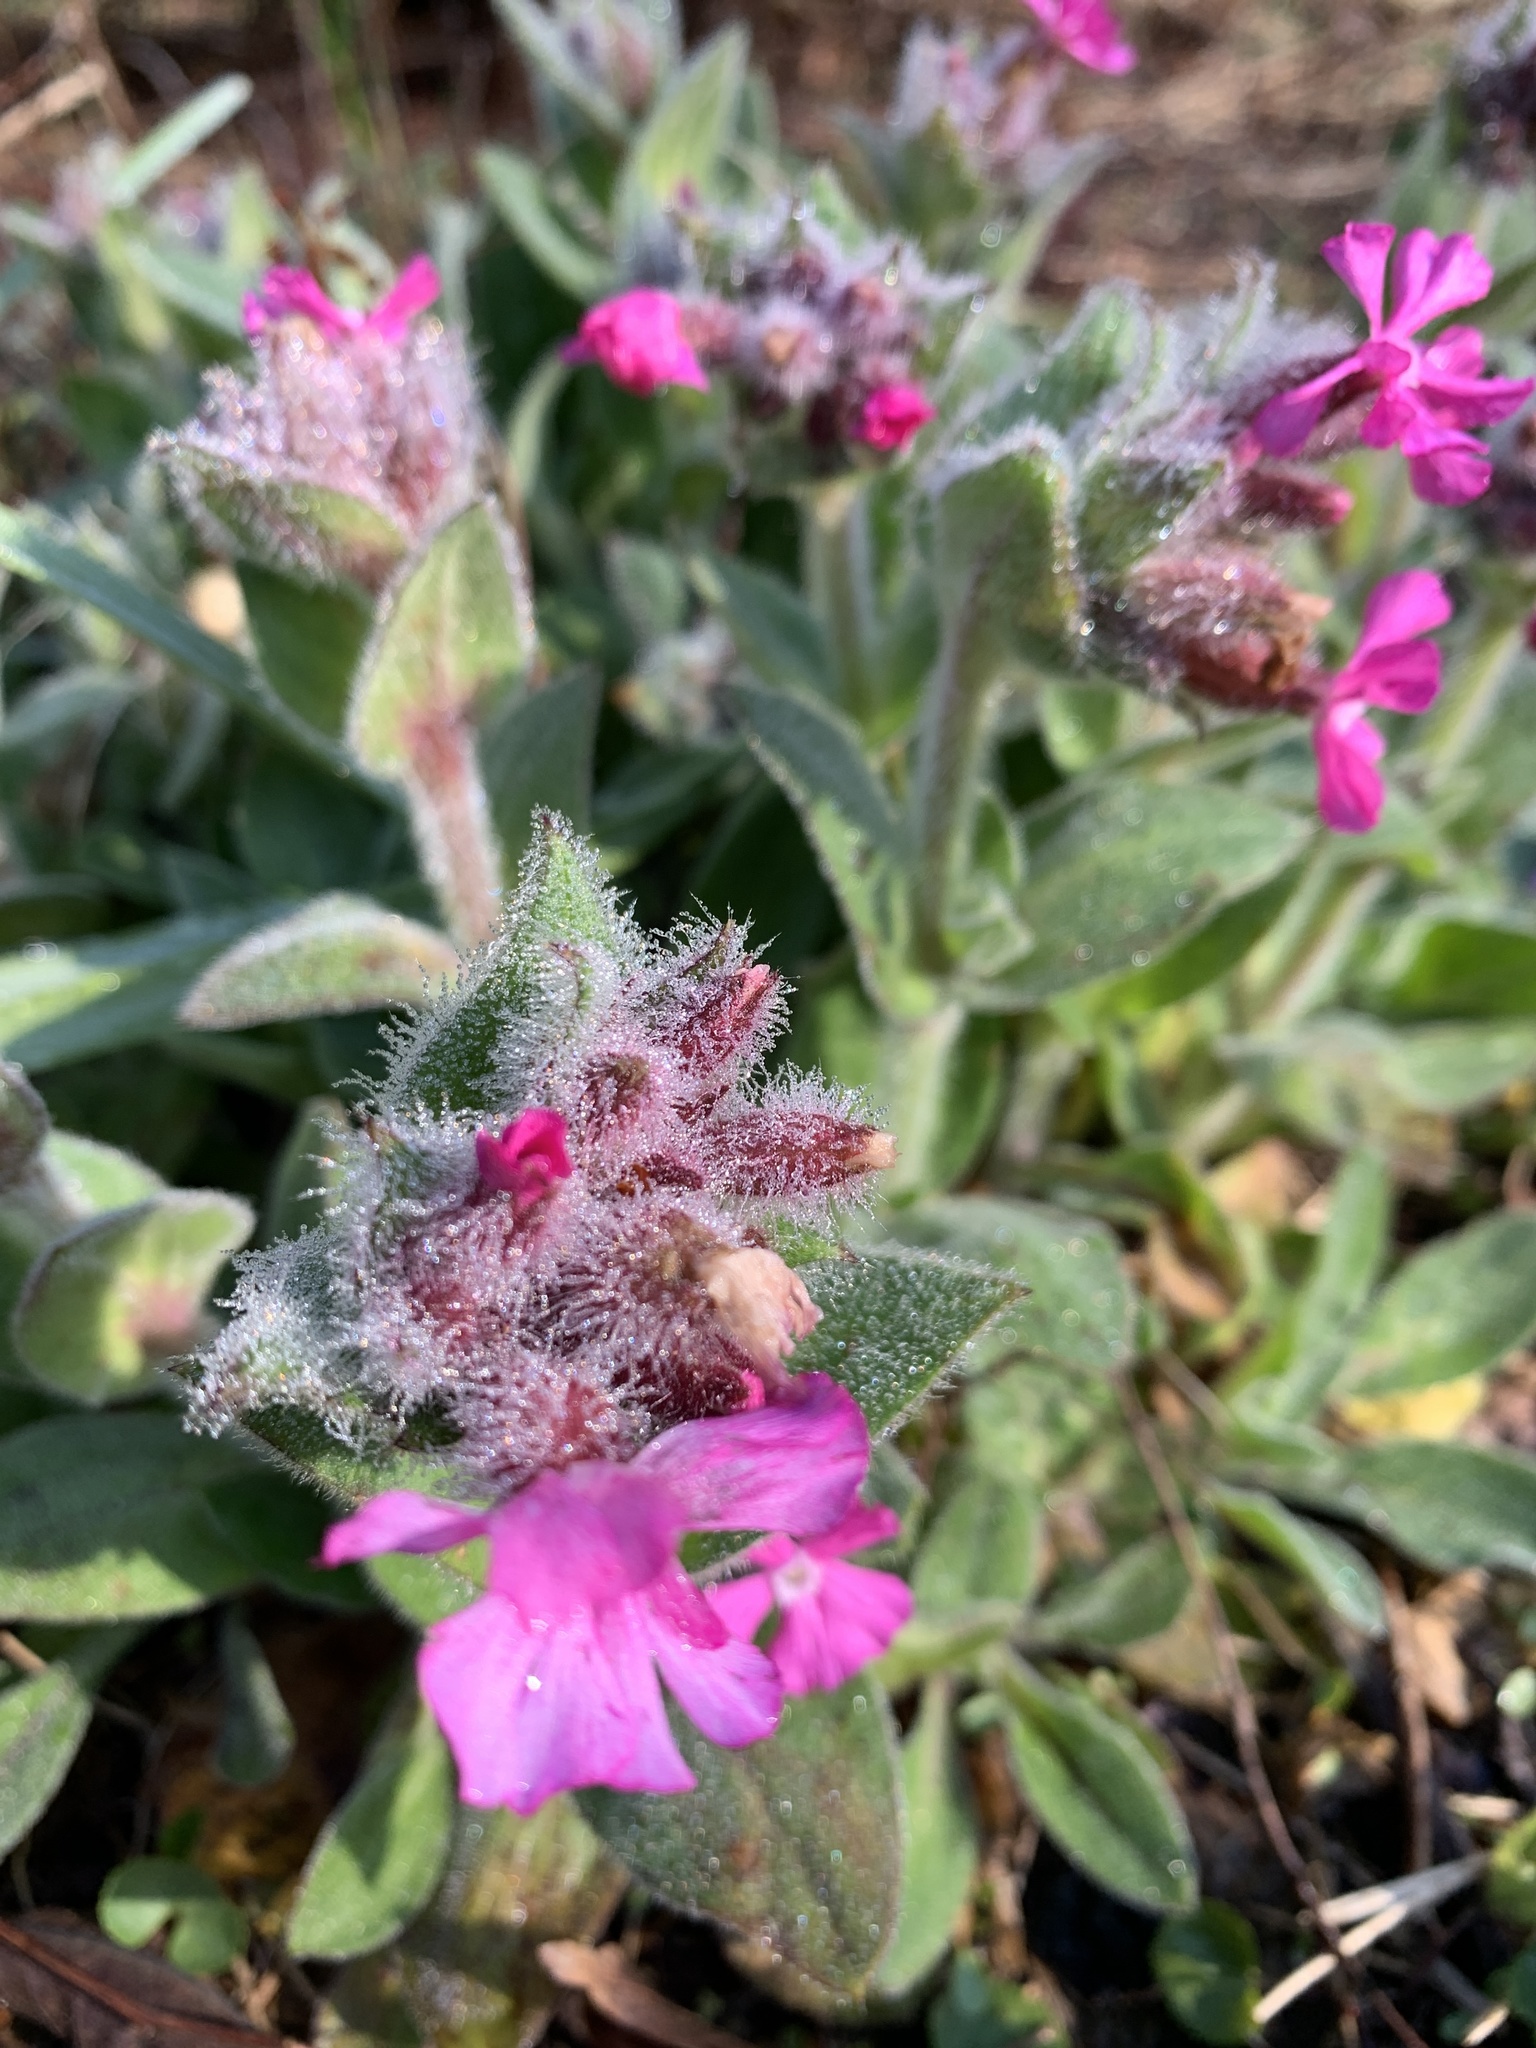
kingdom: Plantae
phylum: Tracheophyta
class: Magnoliopsida
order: Caryophyllales
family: Caryophyllaceae
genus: Silene
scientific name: Silene dioica
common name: Red campion
